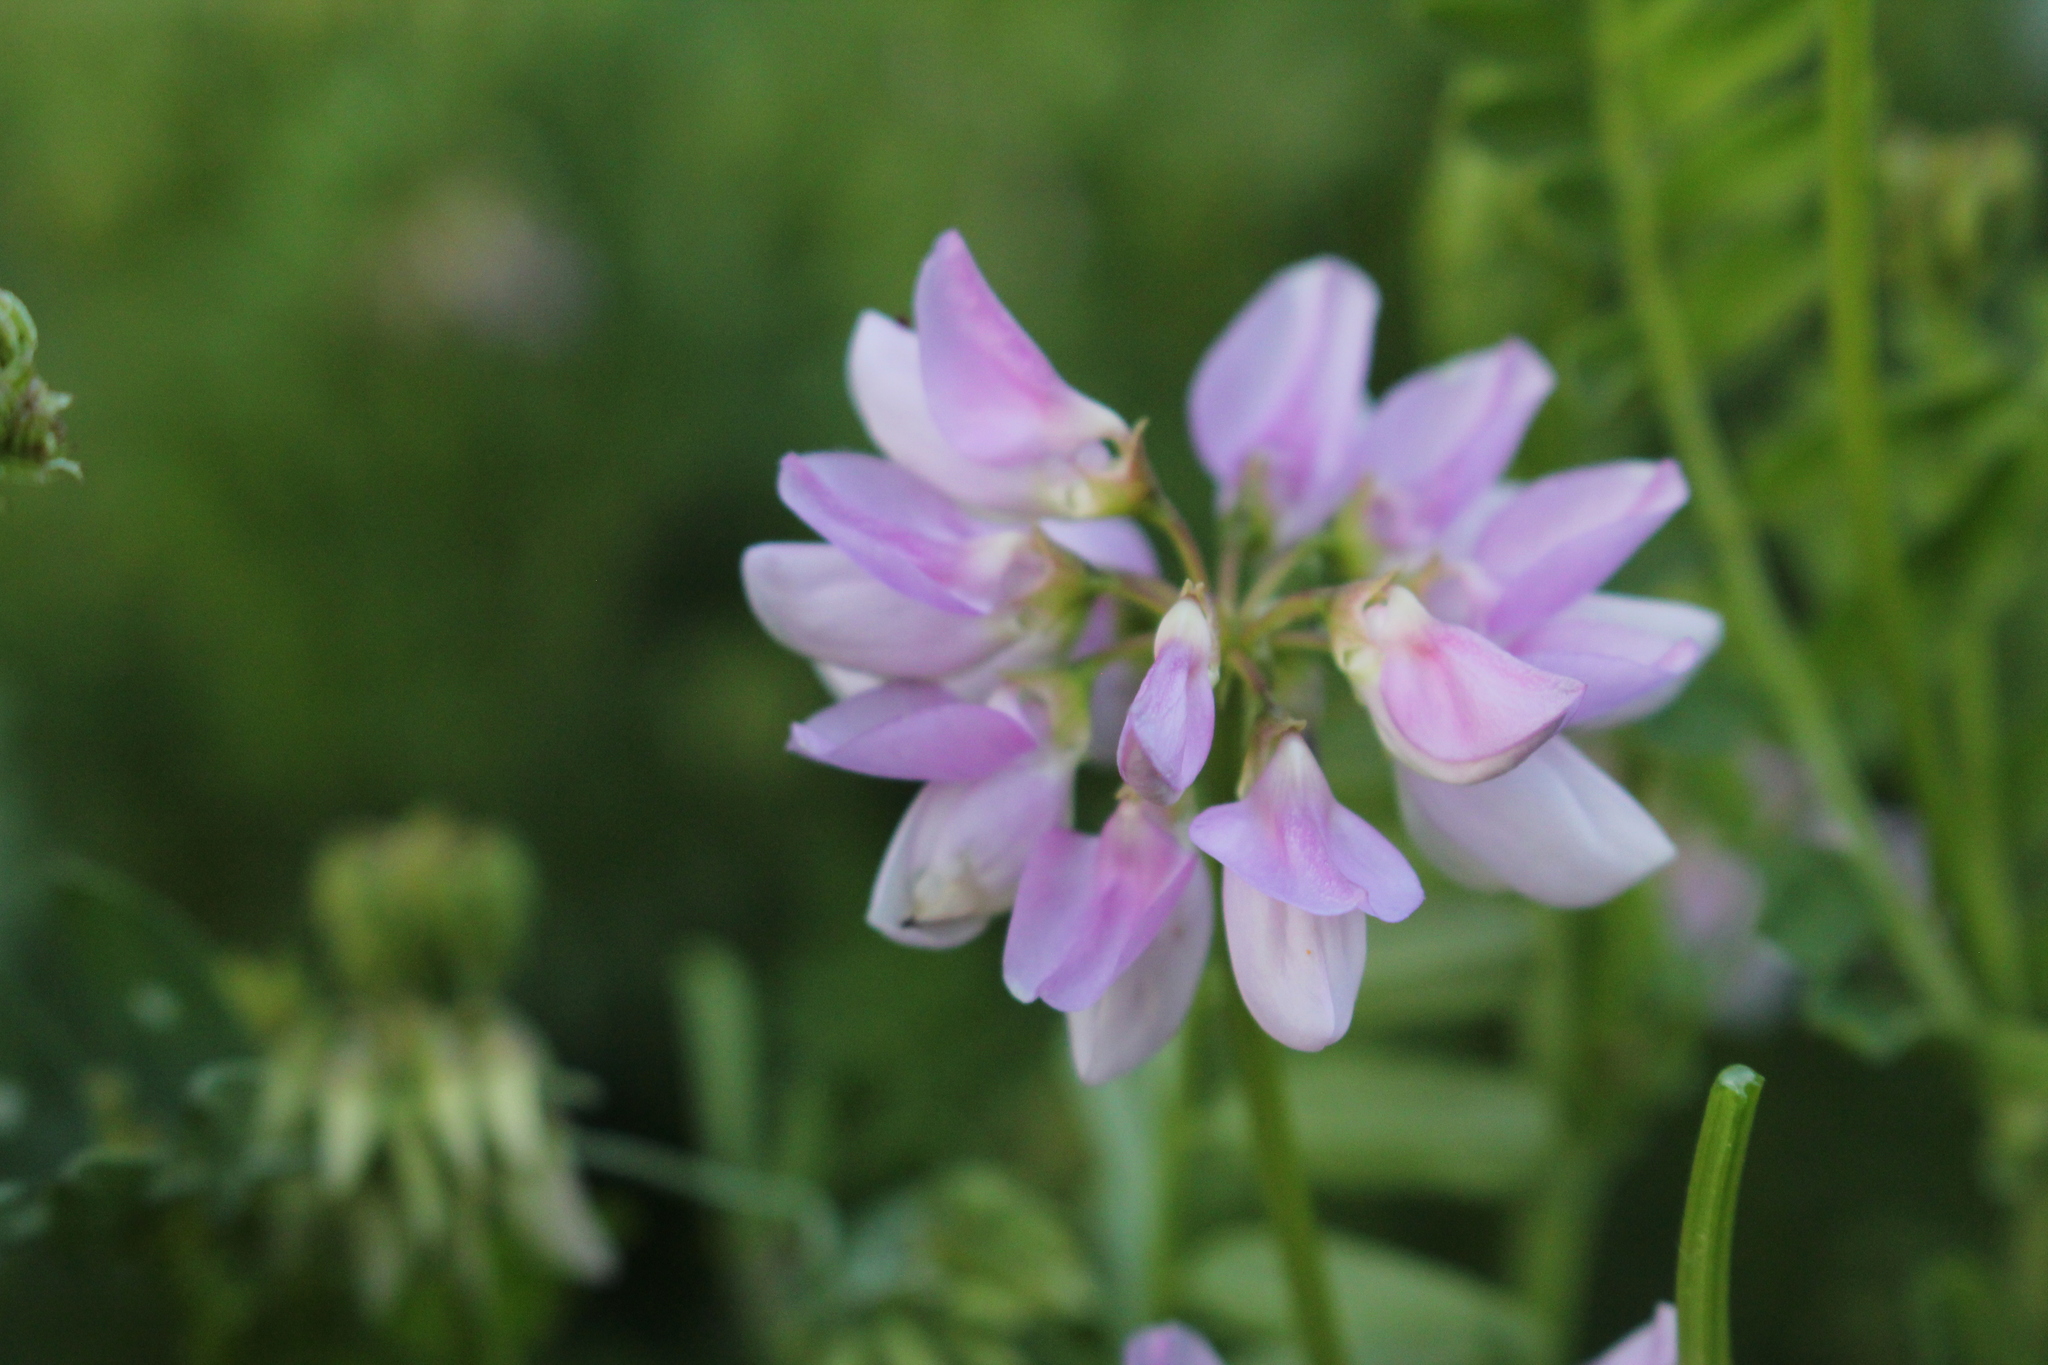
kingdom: Plantae
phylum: Tracheophyta
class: Magnoliopsida
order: Fabales
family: Fabaceae
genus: Coronilla
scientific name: Coronilla varia
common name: Crownvetch
